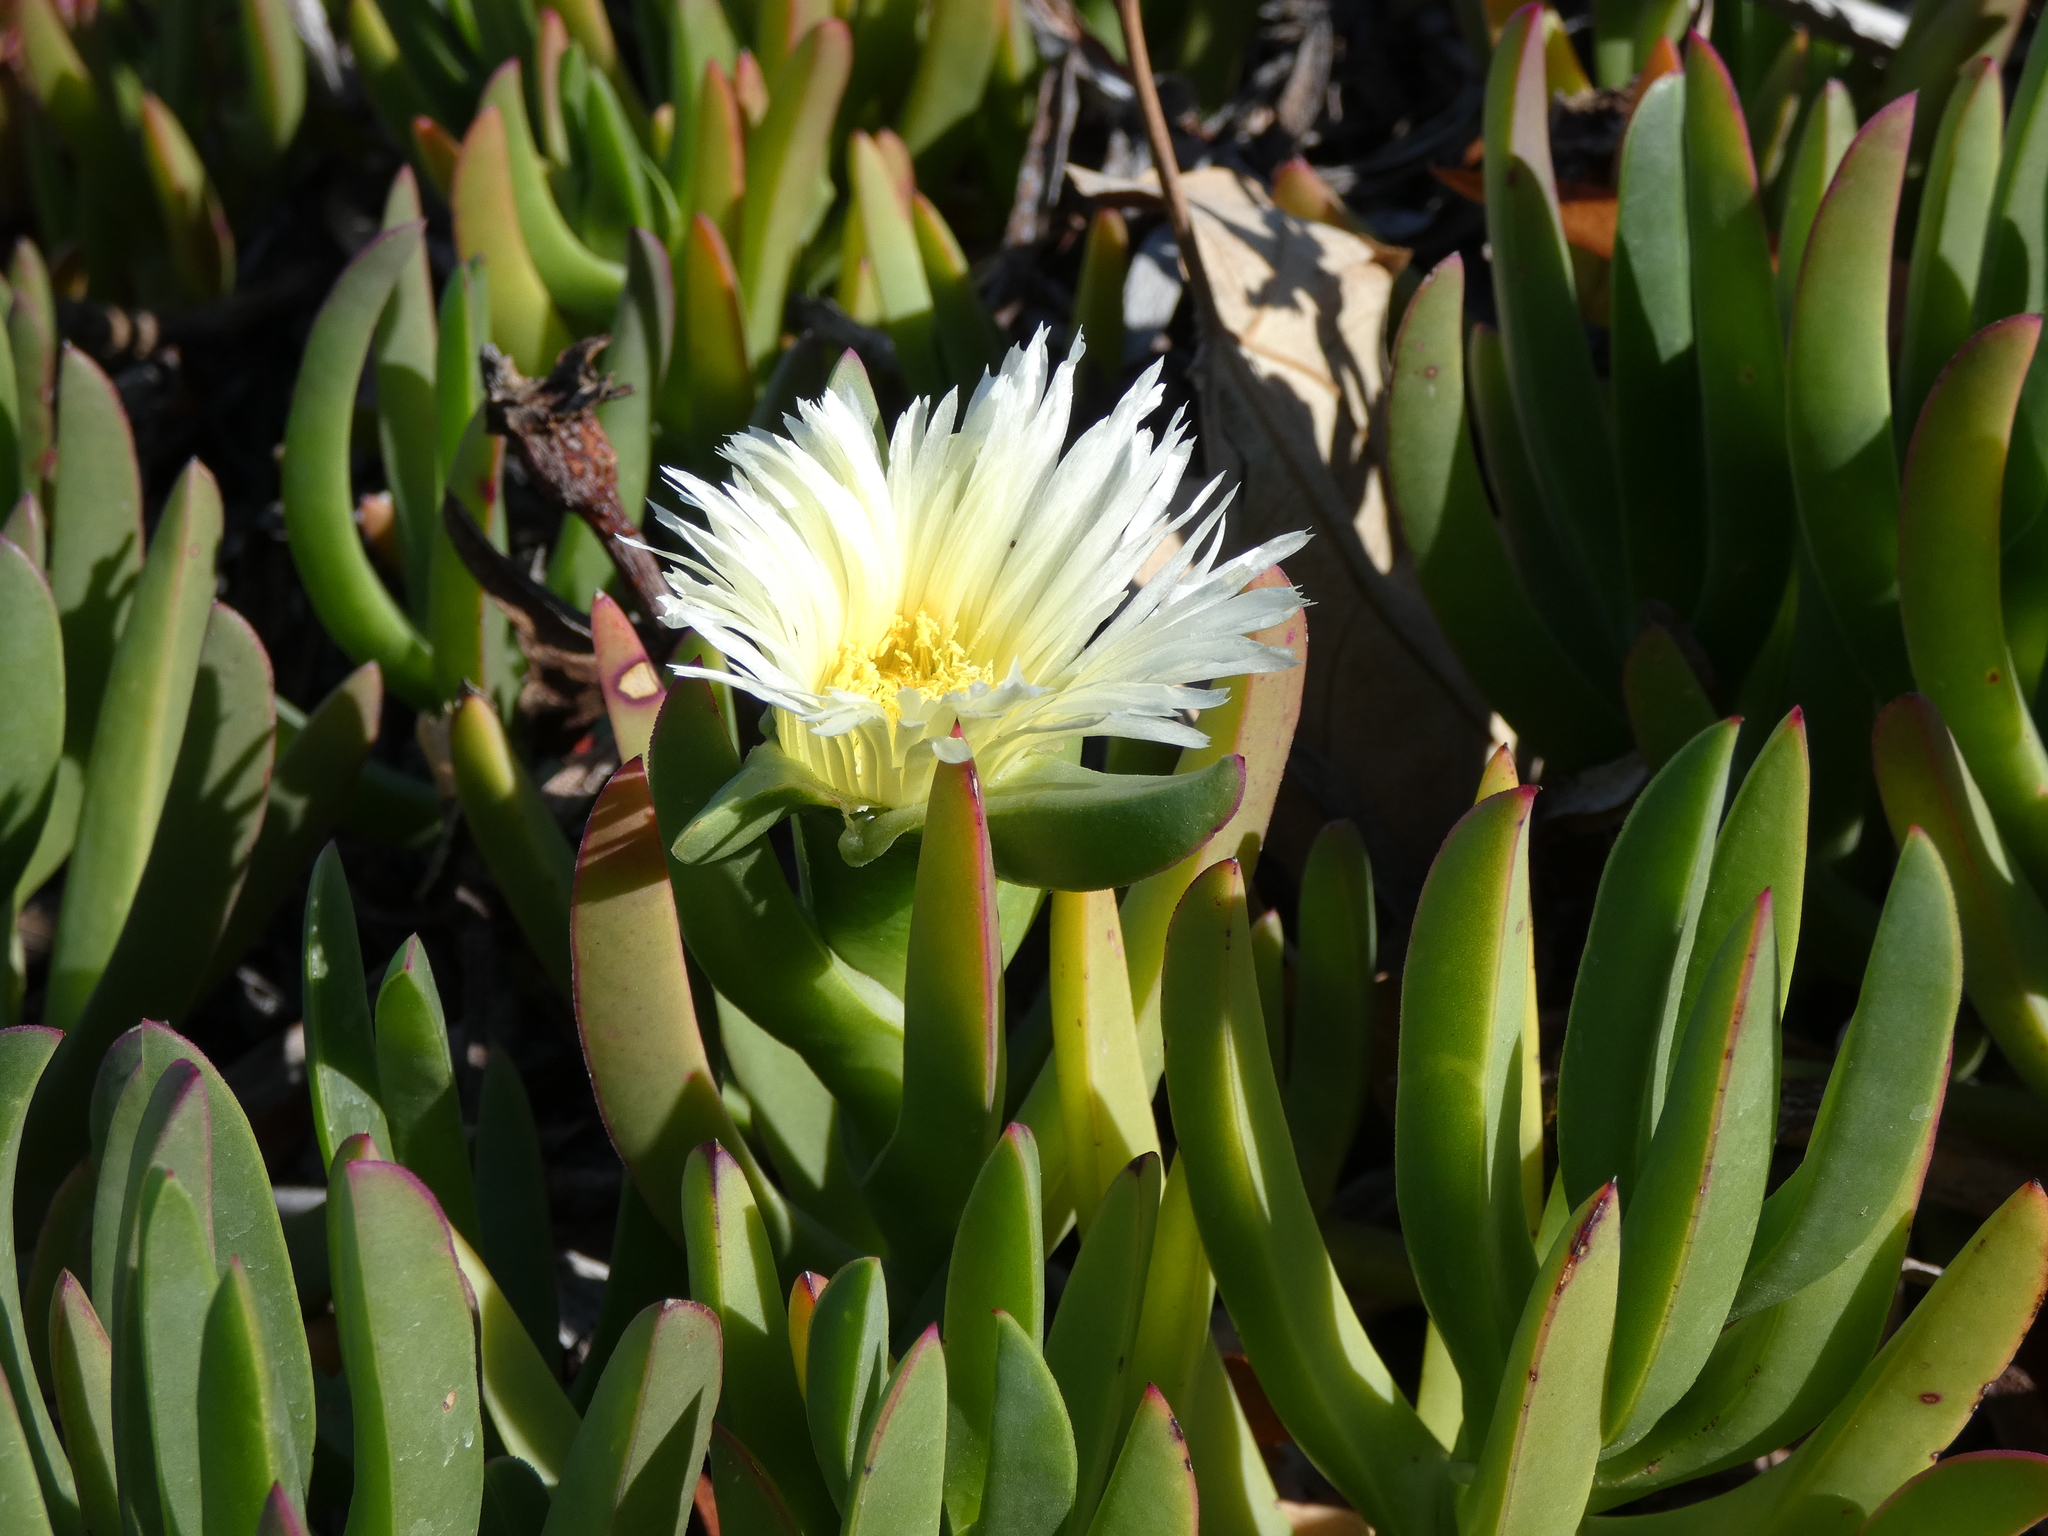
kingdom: Plantae
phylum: Tracheophyta
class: Magnoliopsida
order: Caryophyllales
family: Aizoaceae
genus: Carpobrotus
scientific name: Carpobrotus edulis
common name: Hottentot-fig
